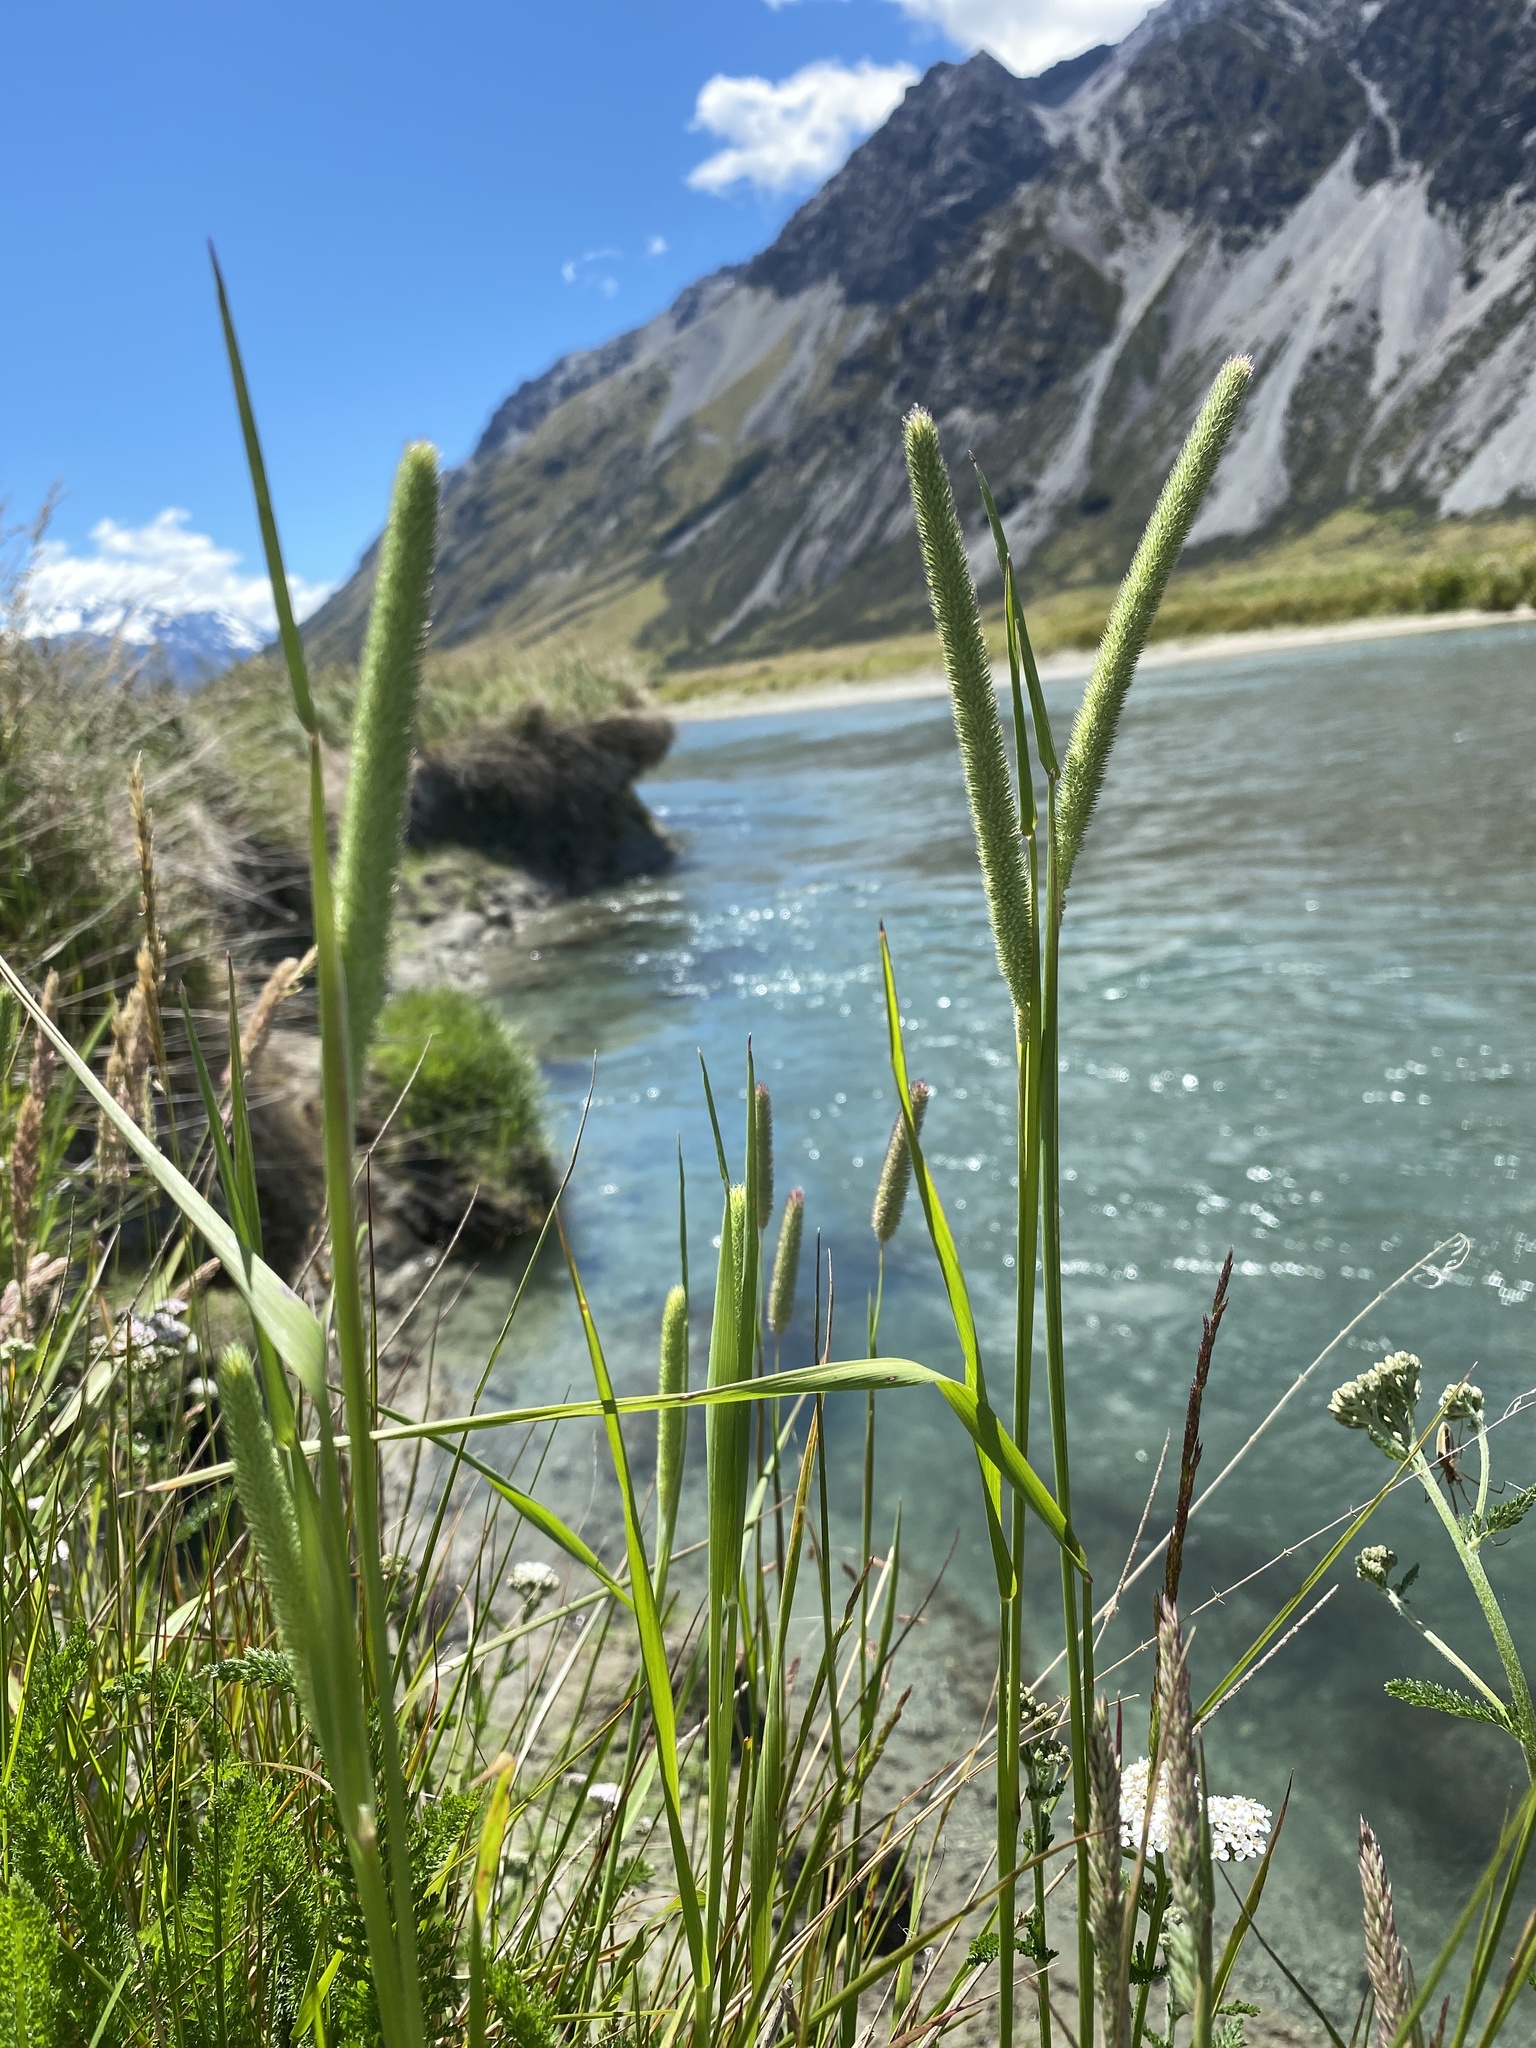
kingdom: Plantae
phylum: Tracheophyta
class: Liliopsida
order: Poales
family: Poaceae
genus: Phleum
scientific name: Phleum pratense
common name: Timothy grass
